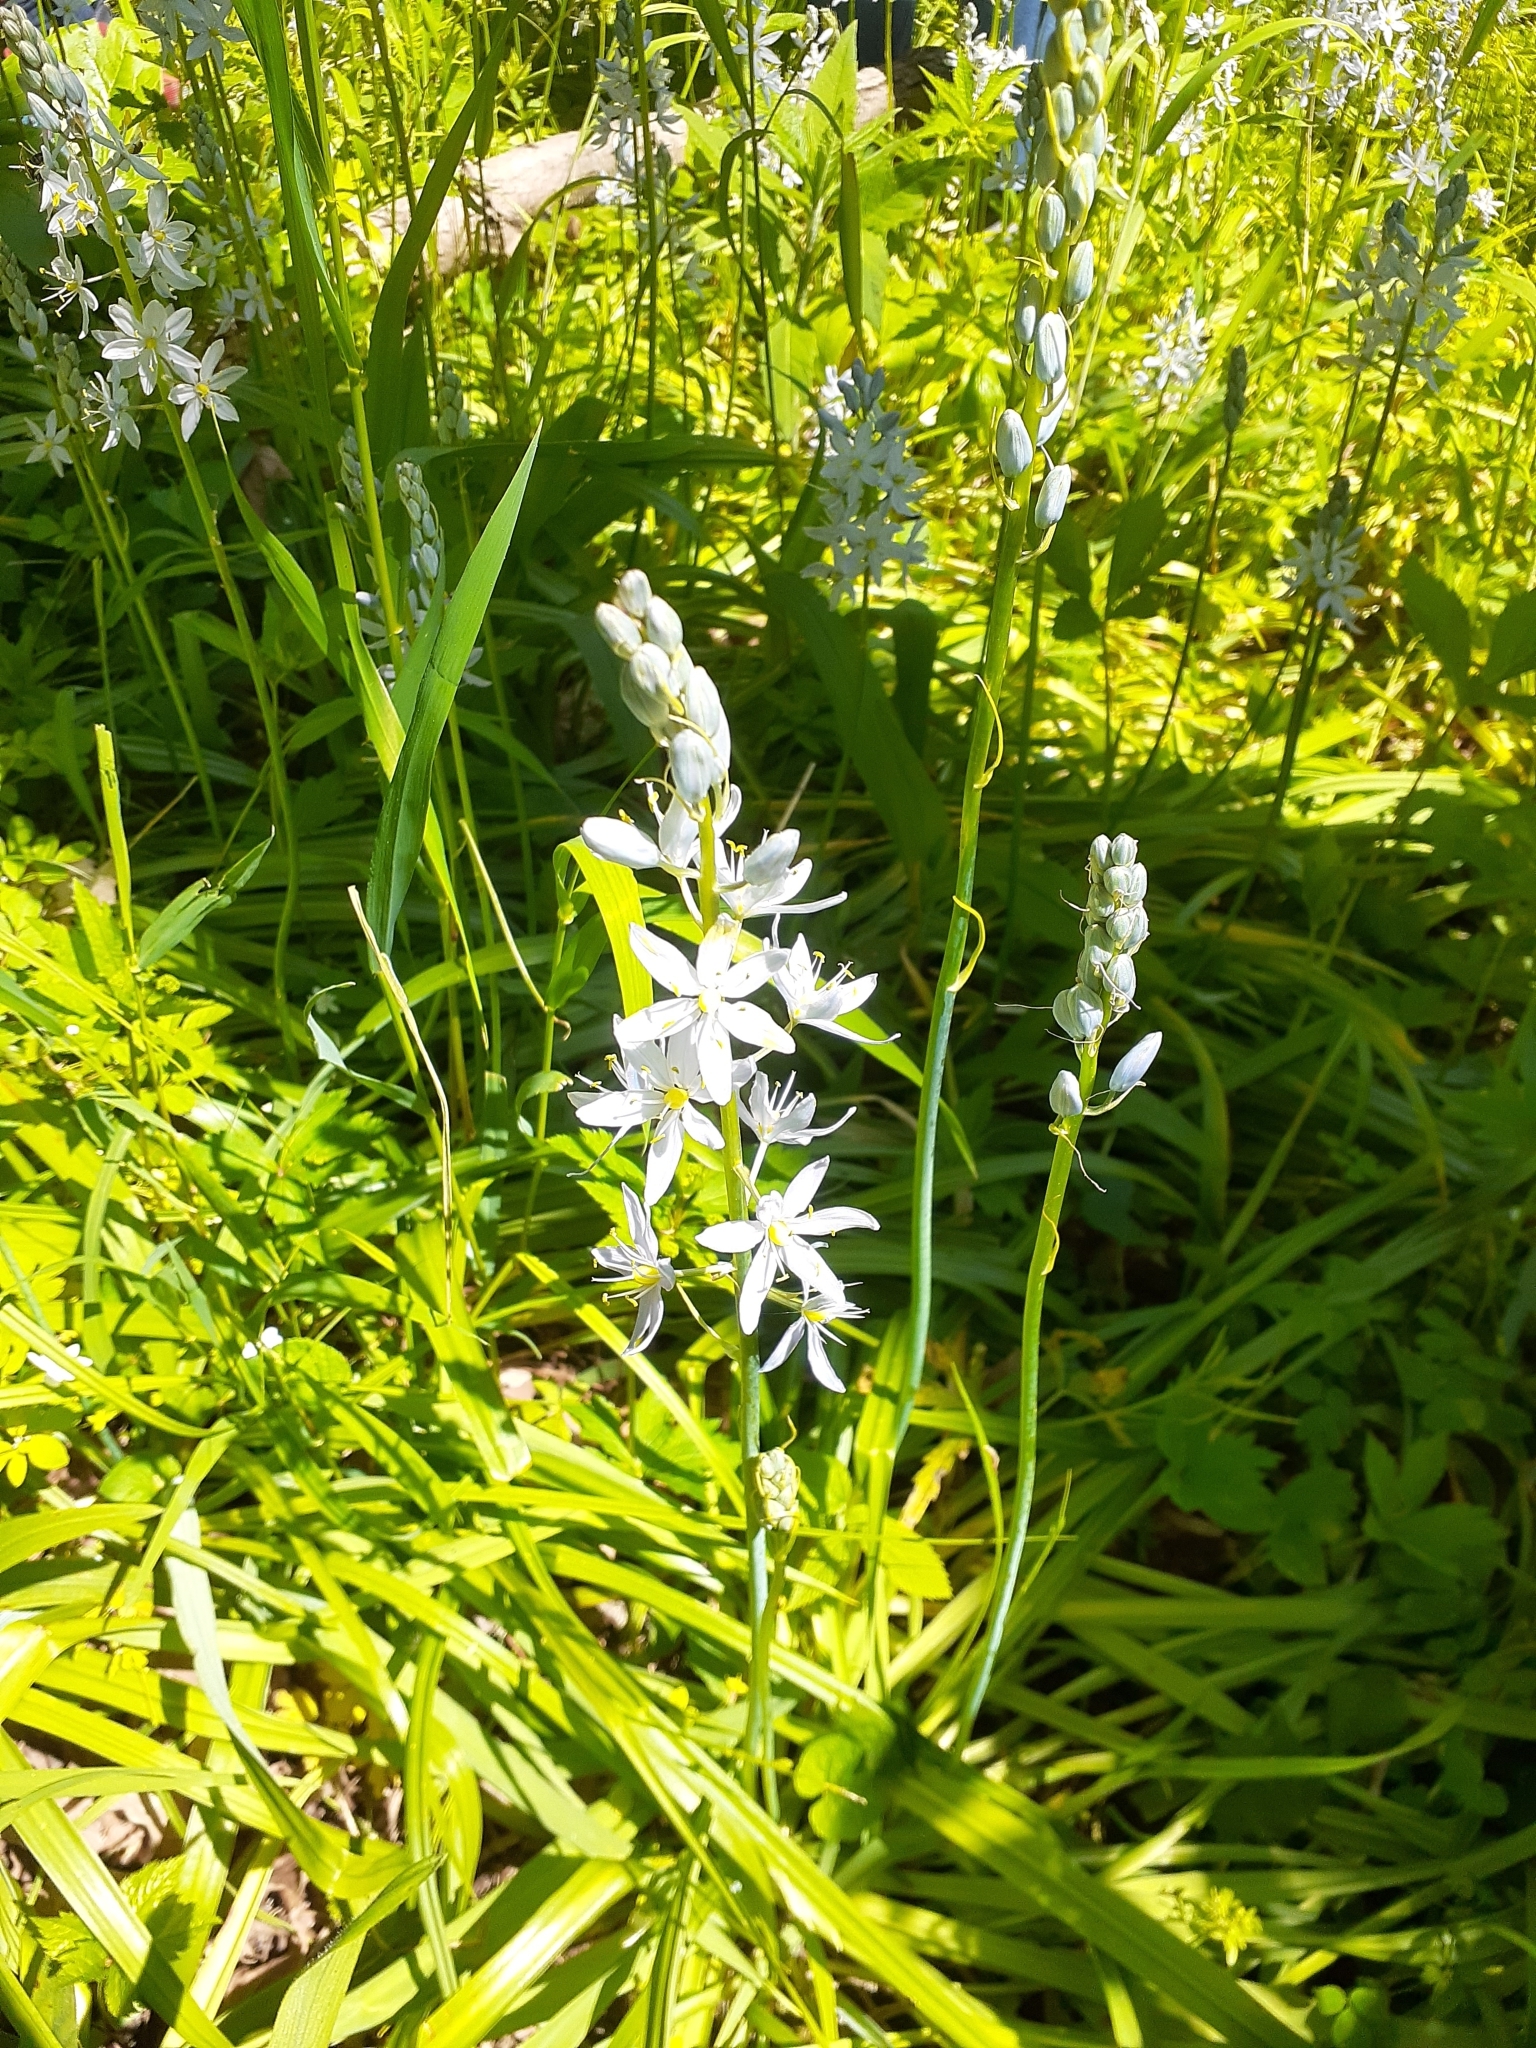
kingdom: Plantae
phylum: Tracheophyta
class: Liliopsida
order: Asparagales
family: Asparagaceae
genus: Camassia
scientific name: Camassia scilloides
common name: Wild hyacinth
